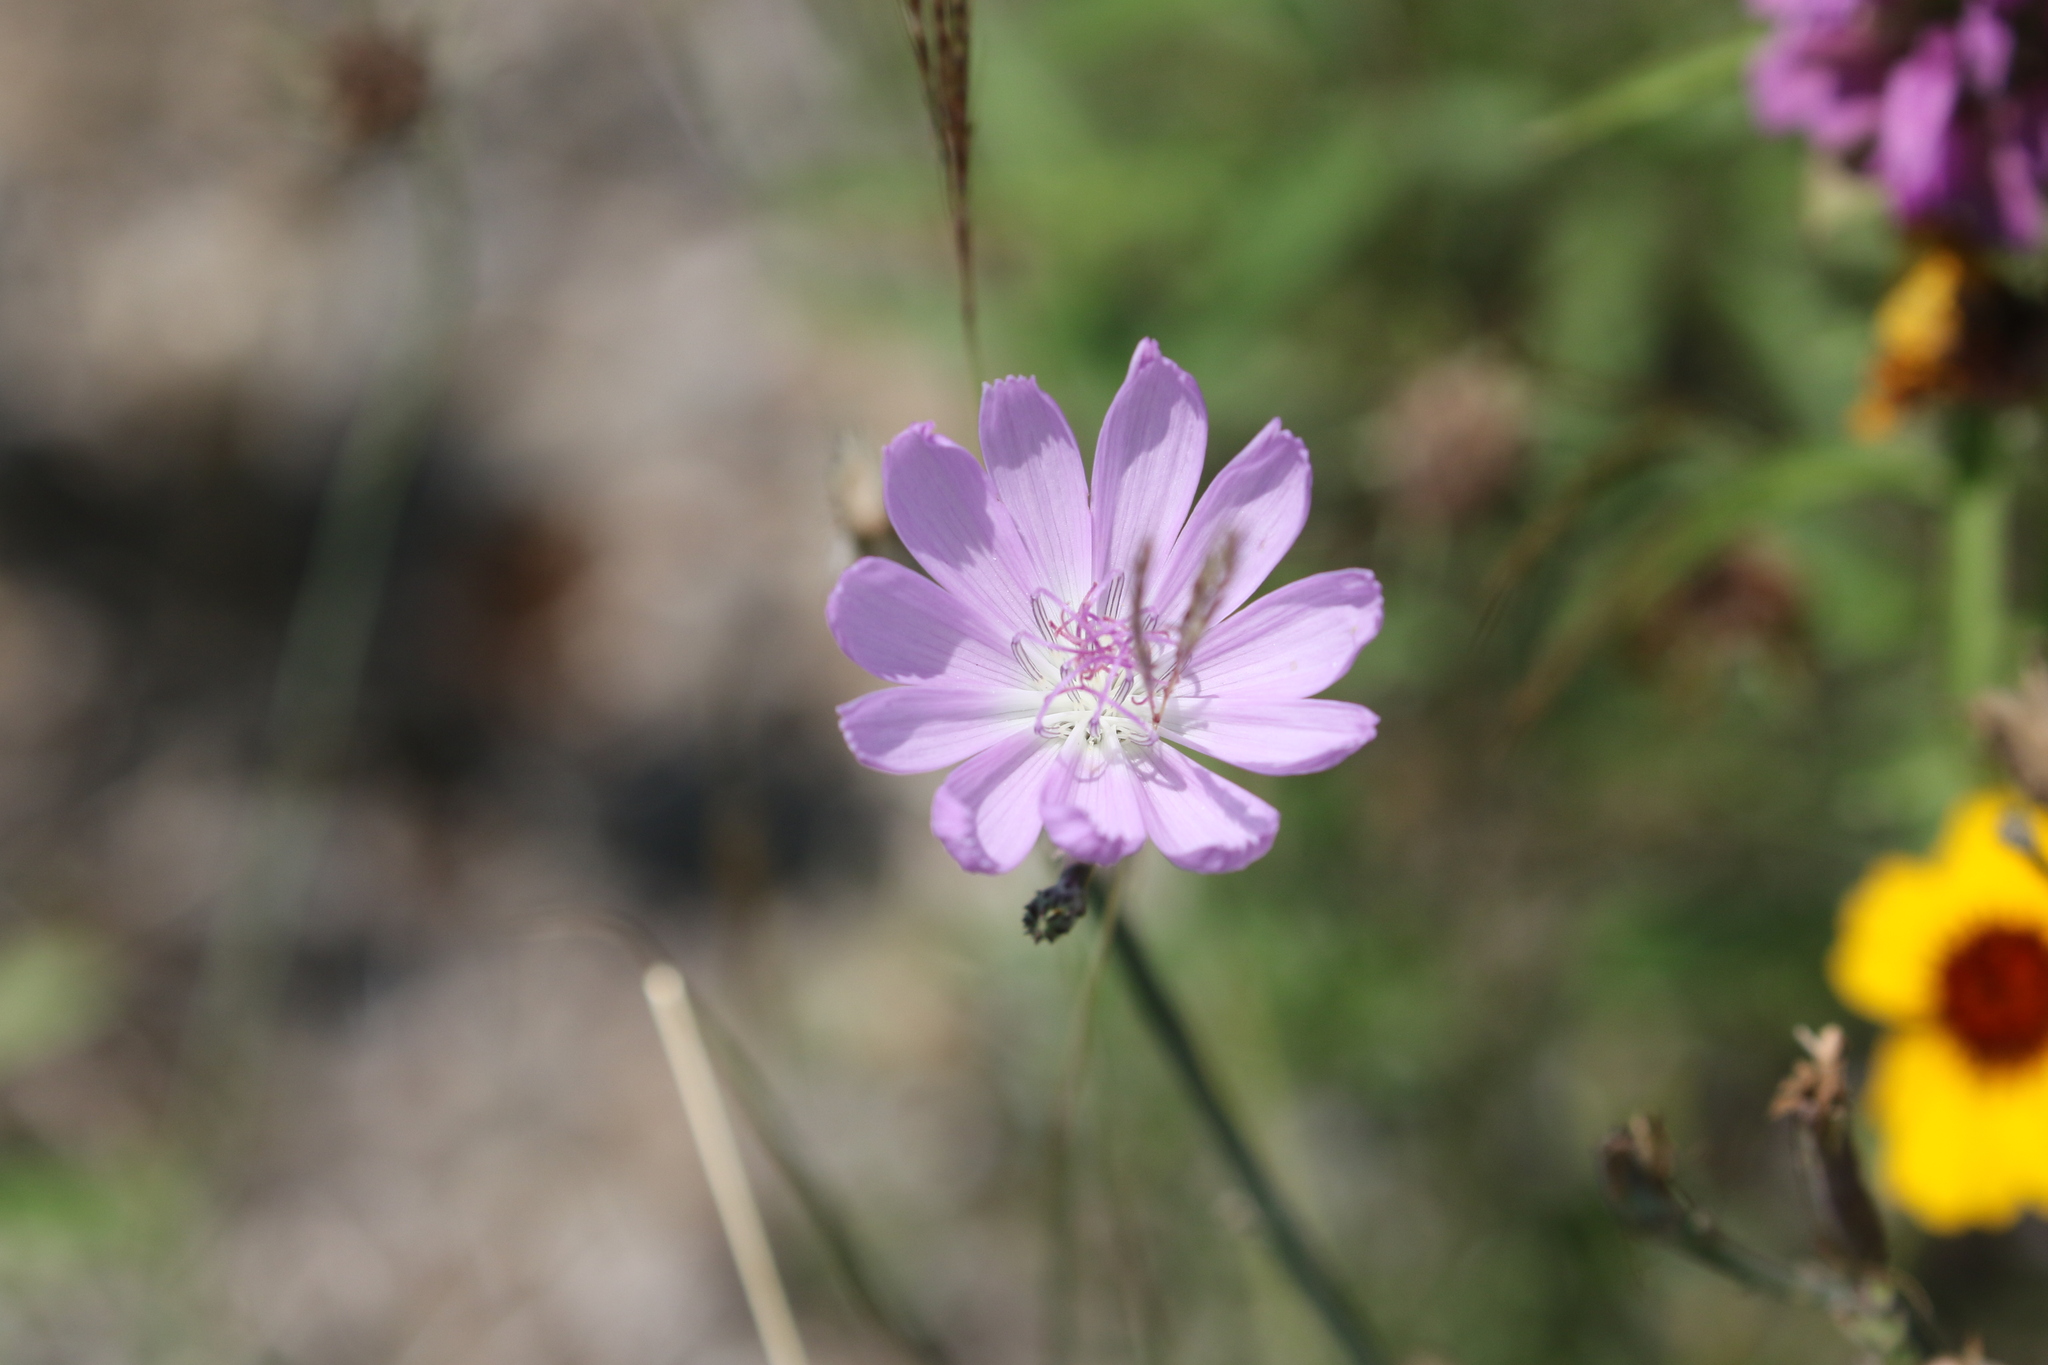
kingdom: Plantae
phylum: Tracheophyta
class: Magnoliopsida
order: Asterales
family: Asteraceae
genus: Lygodesmia
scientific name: Lygodesmia texana
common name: Texas skeleton-plant
